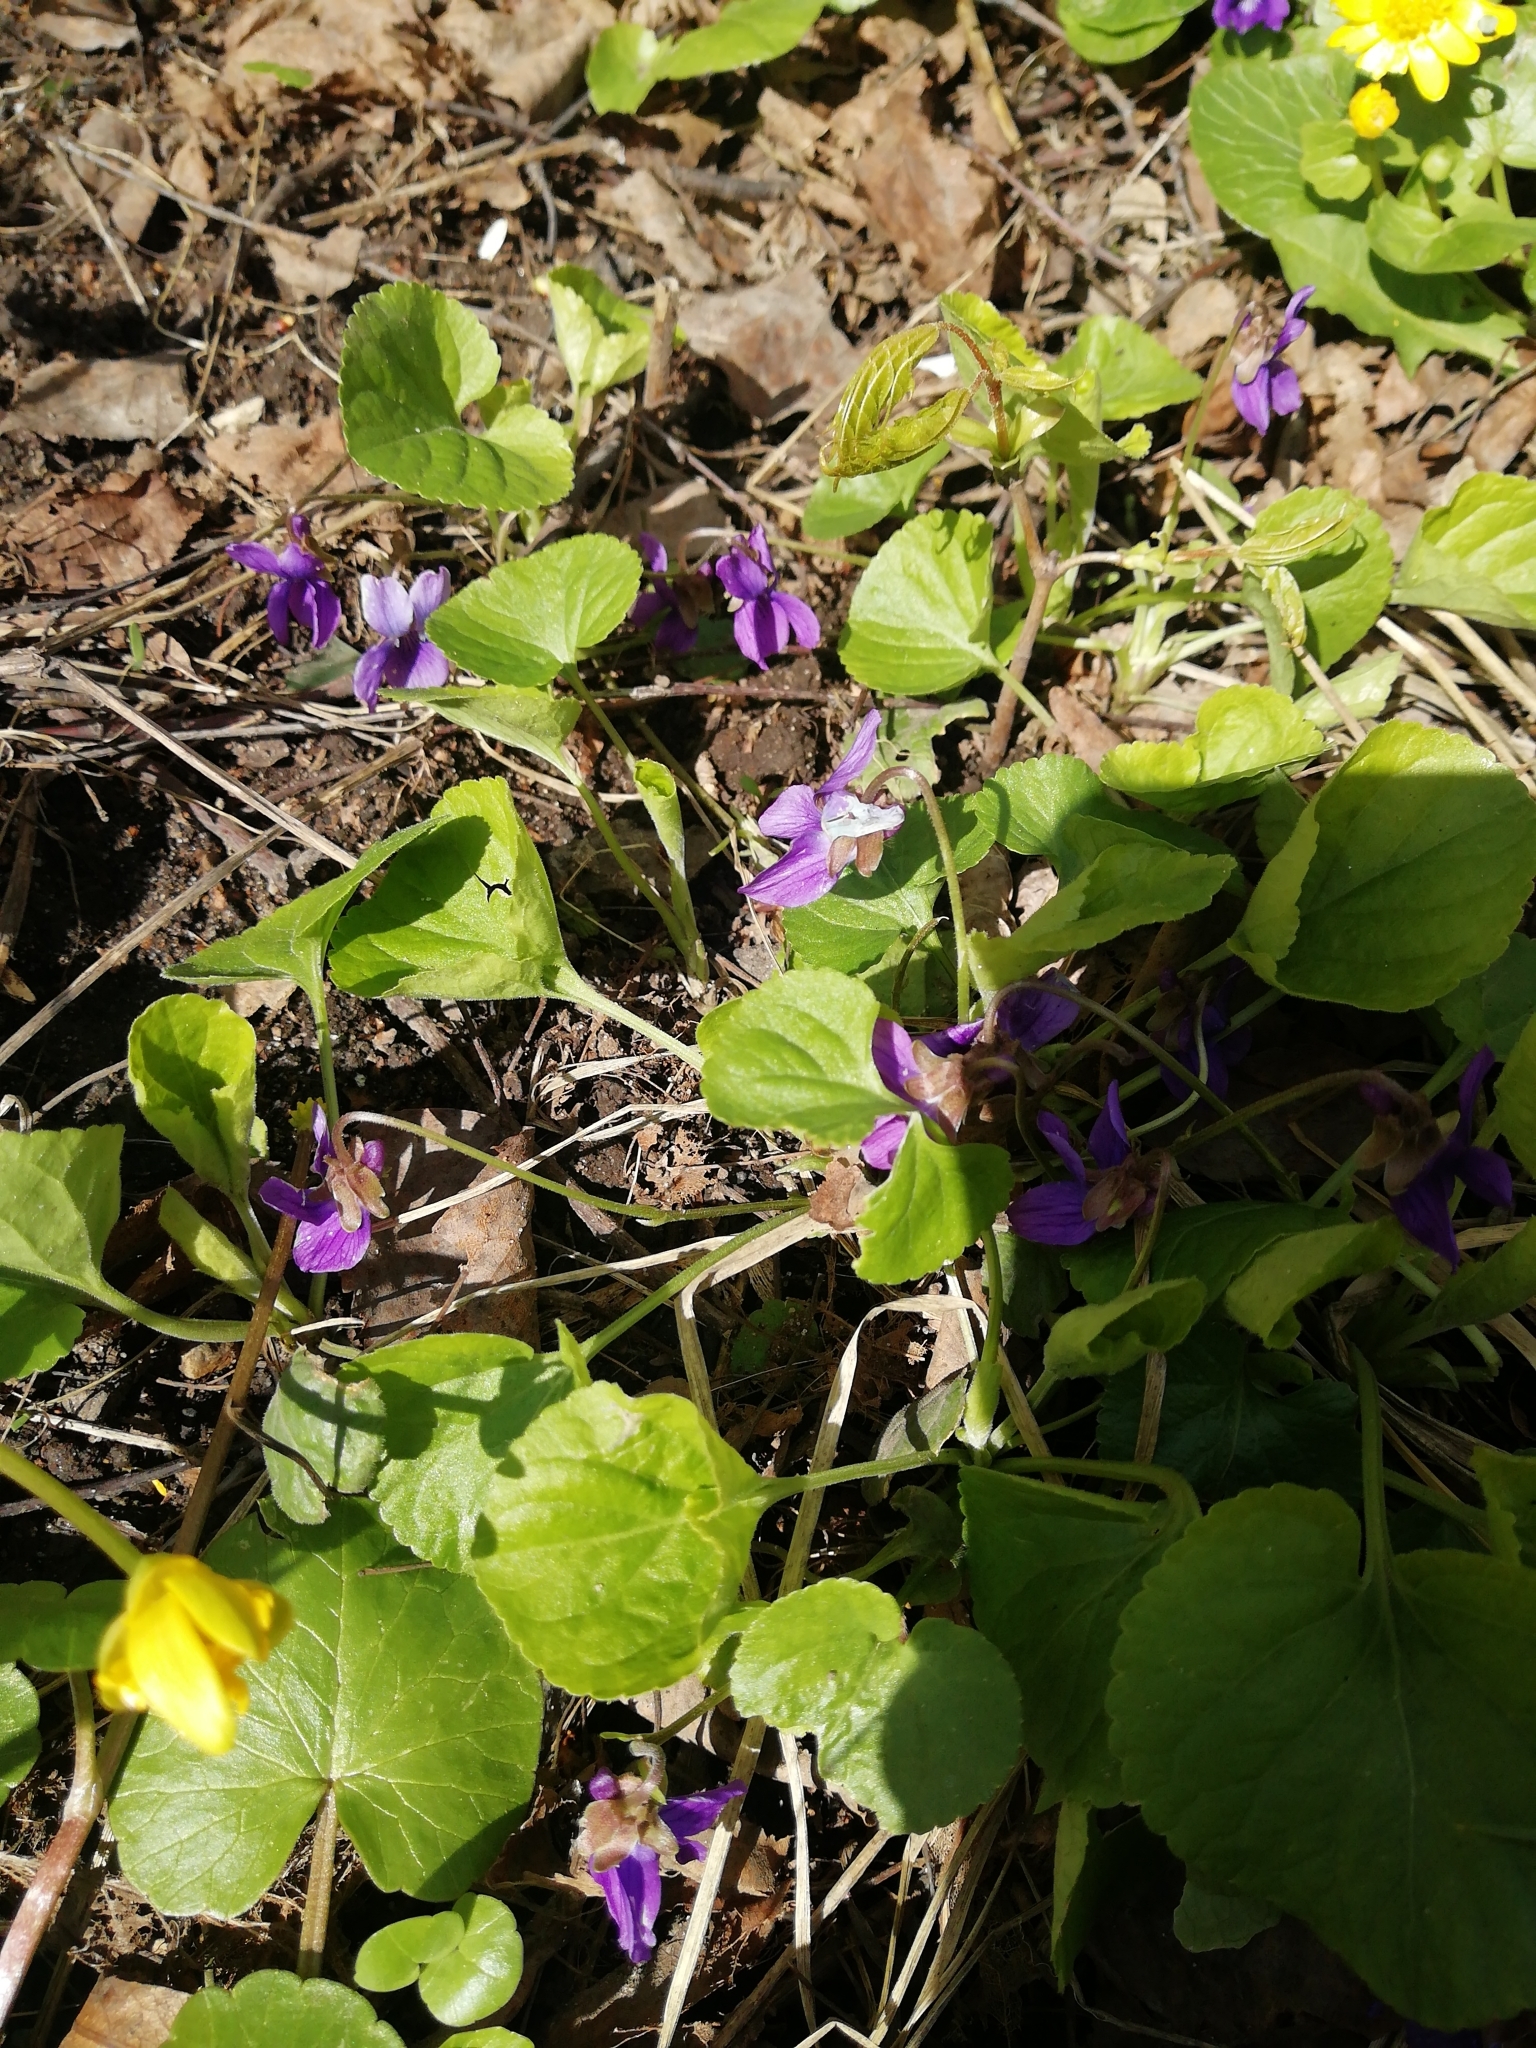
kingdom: Plantae
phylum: Tracheophyta
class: Magnoliopsida
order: Malpighiales
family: Violaceae
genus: Viola
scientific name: Viola odorata
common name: Sweet violet
